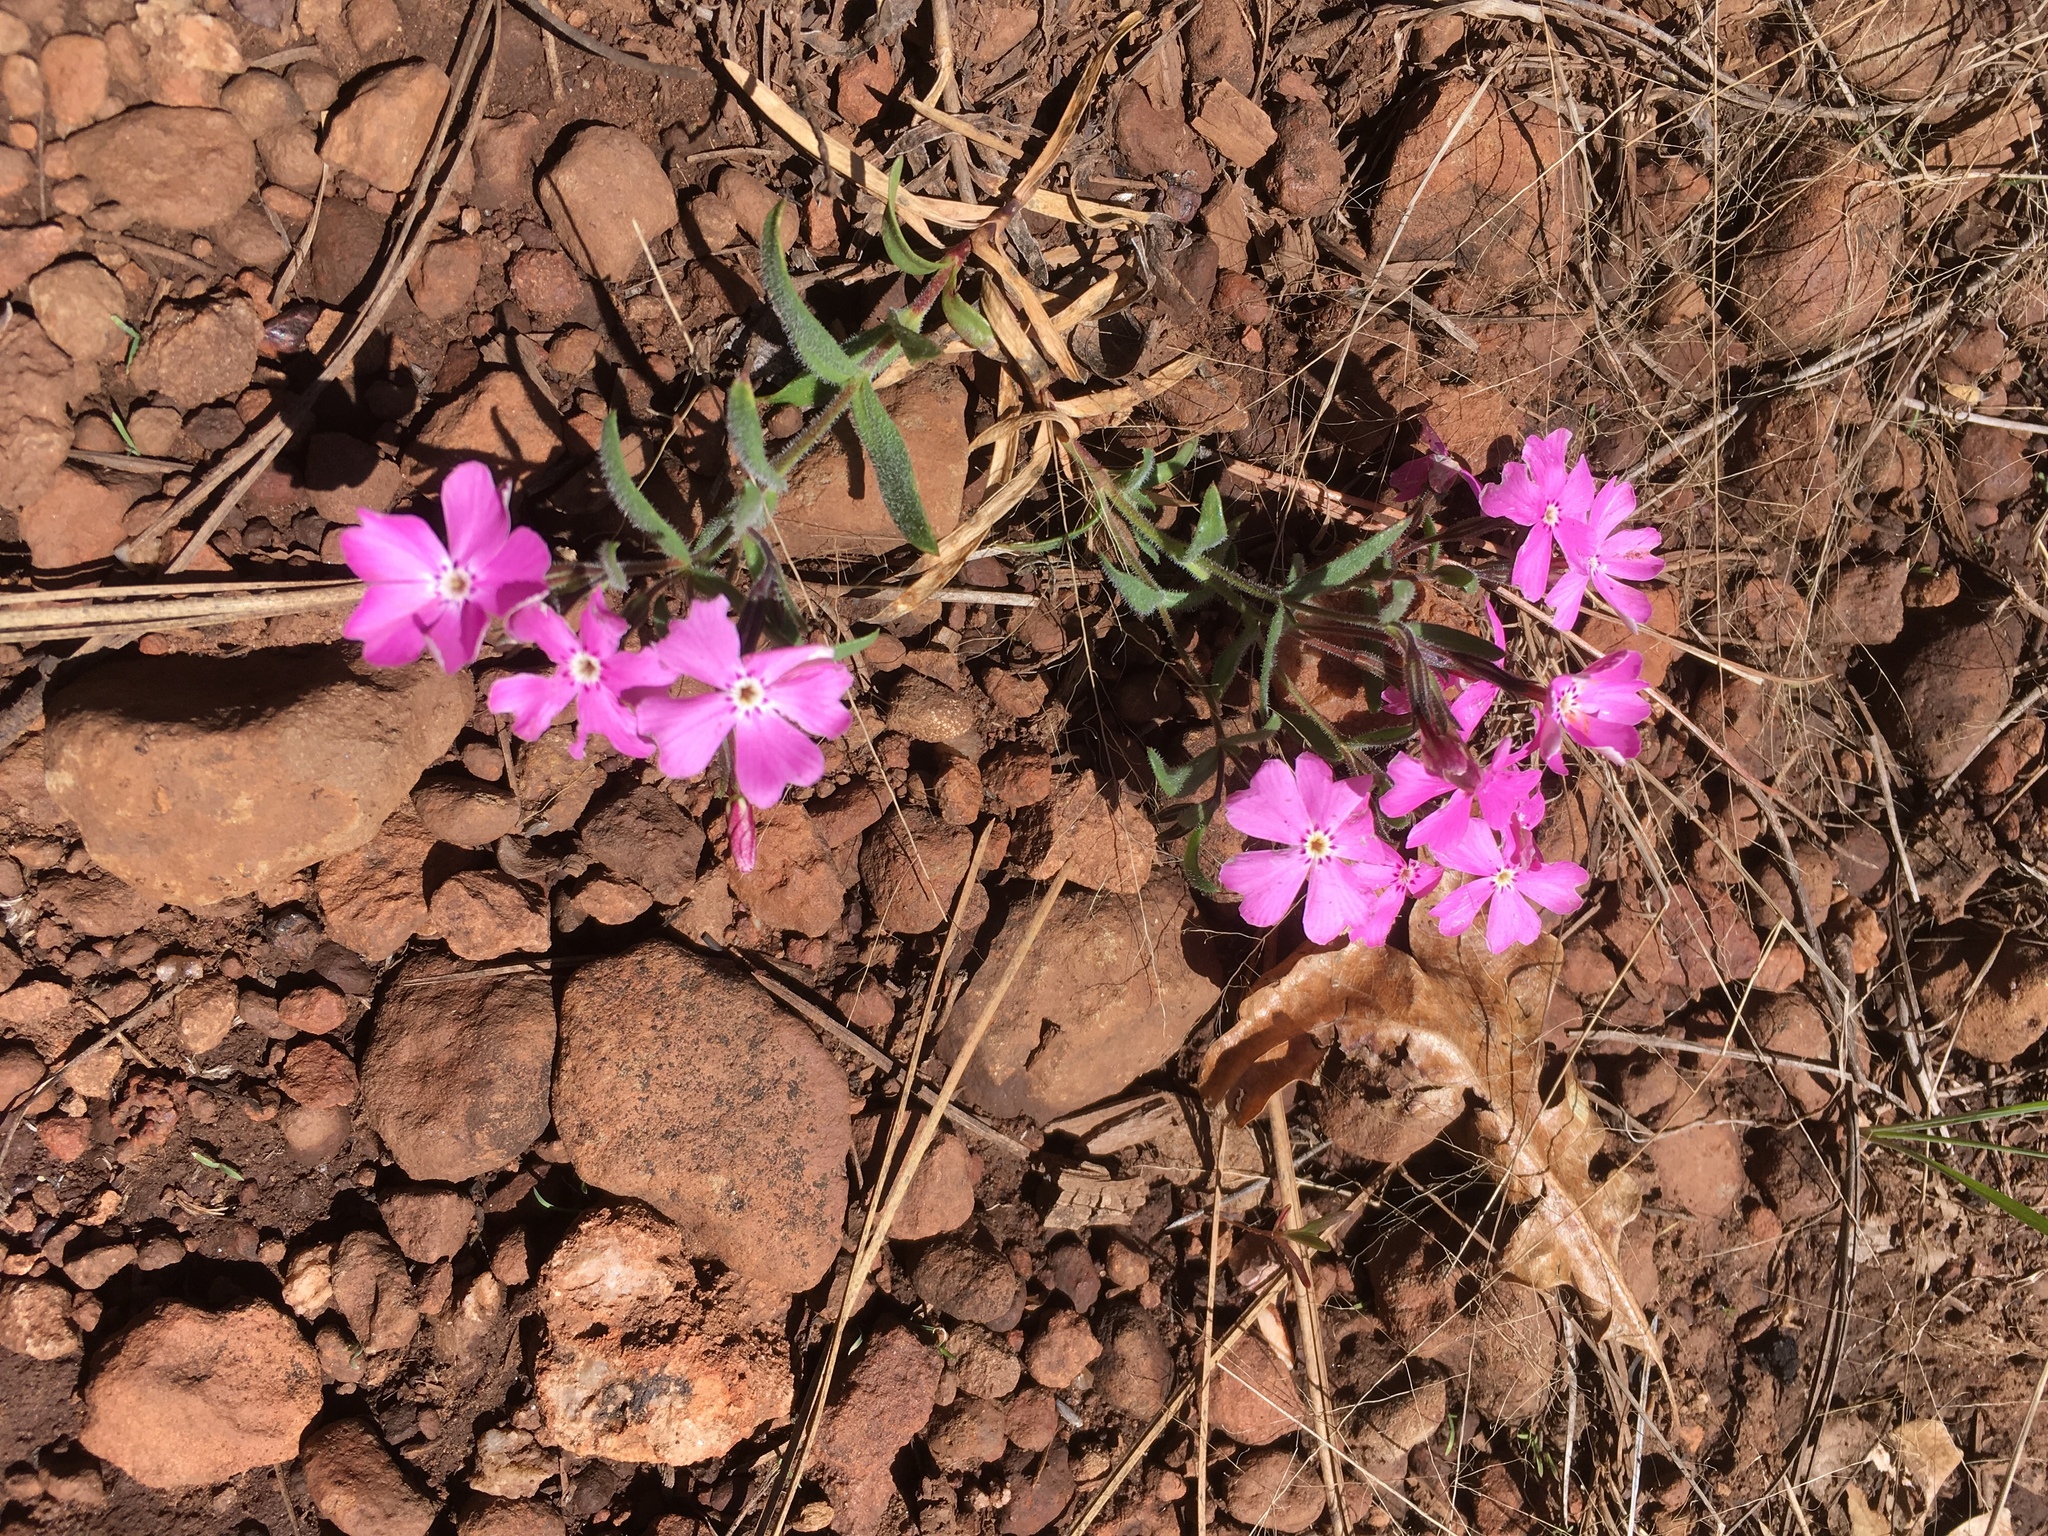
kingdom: Plantae
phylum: Tracheophyta
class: Magnoliopsida
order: Ericales
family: Polemoniaceae
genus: Phlox
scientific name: Phlox woodhousei
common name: Star phlox
